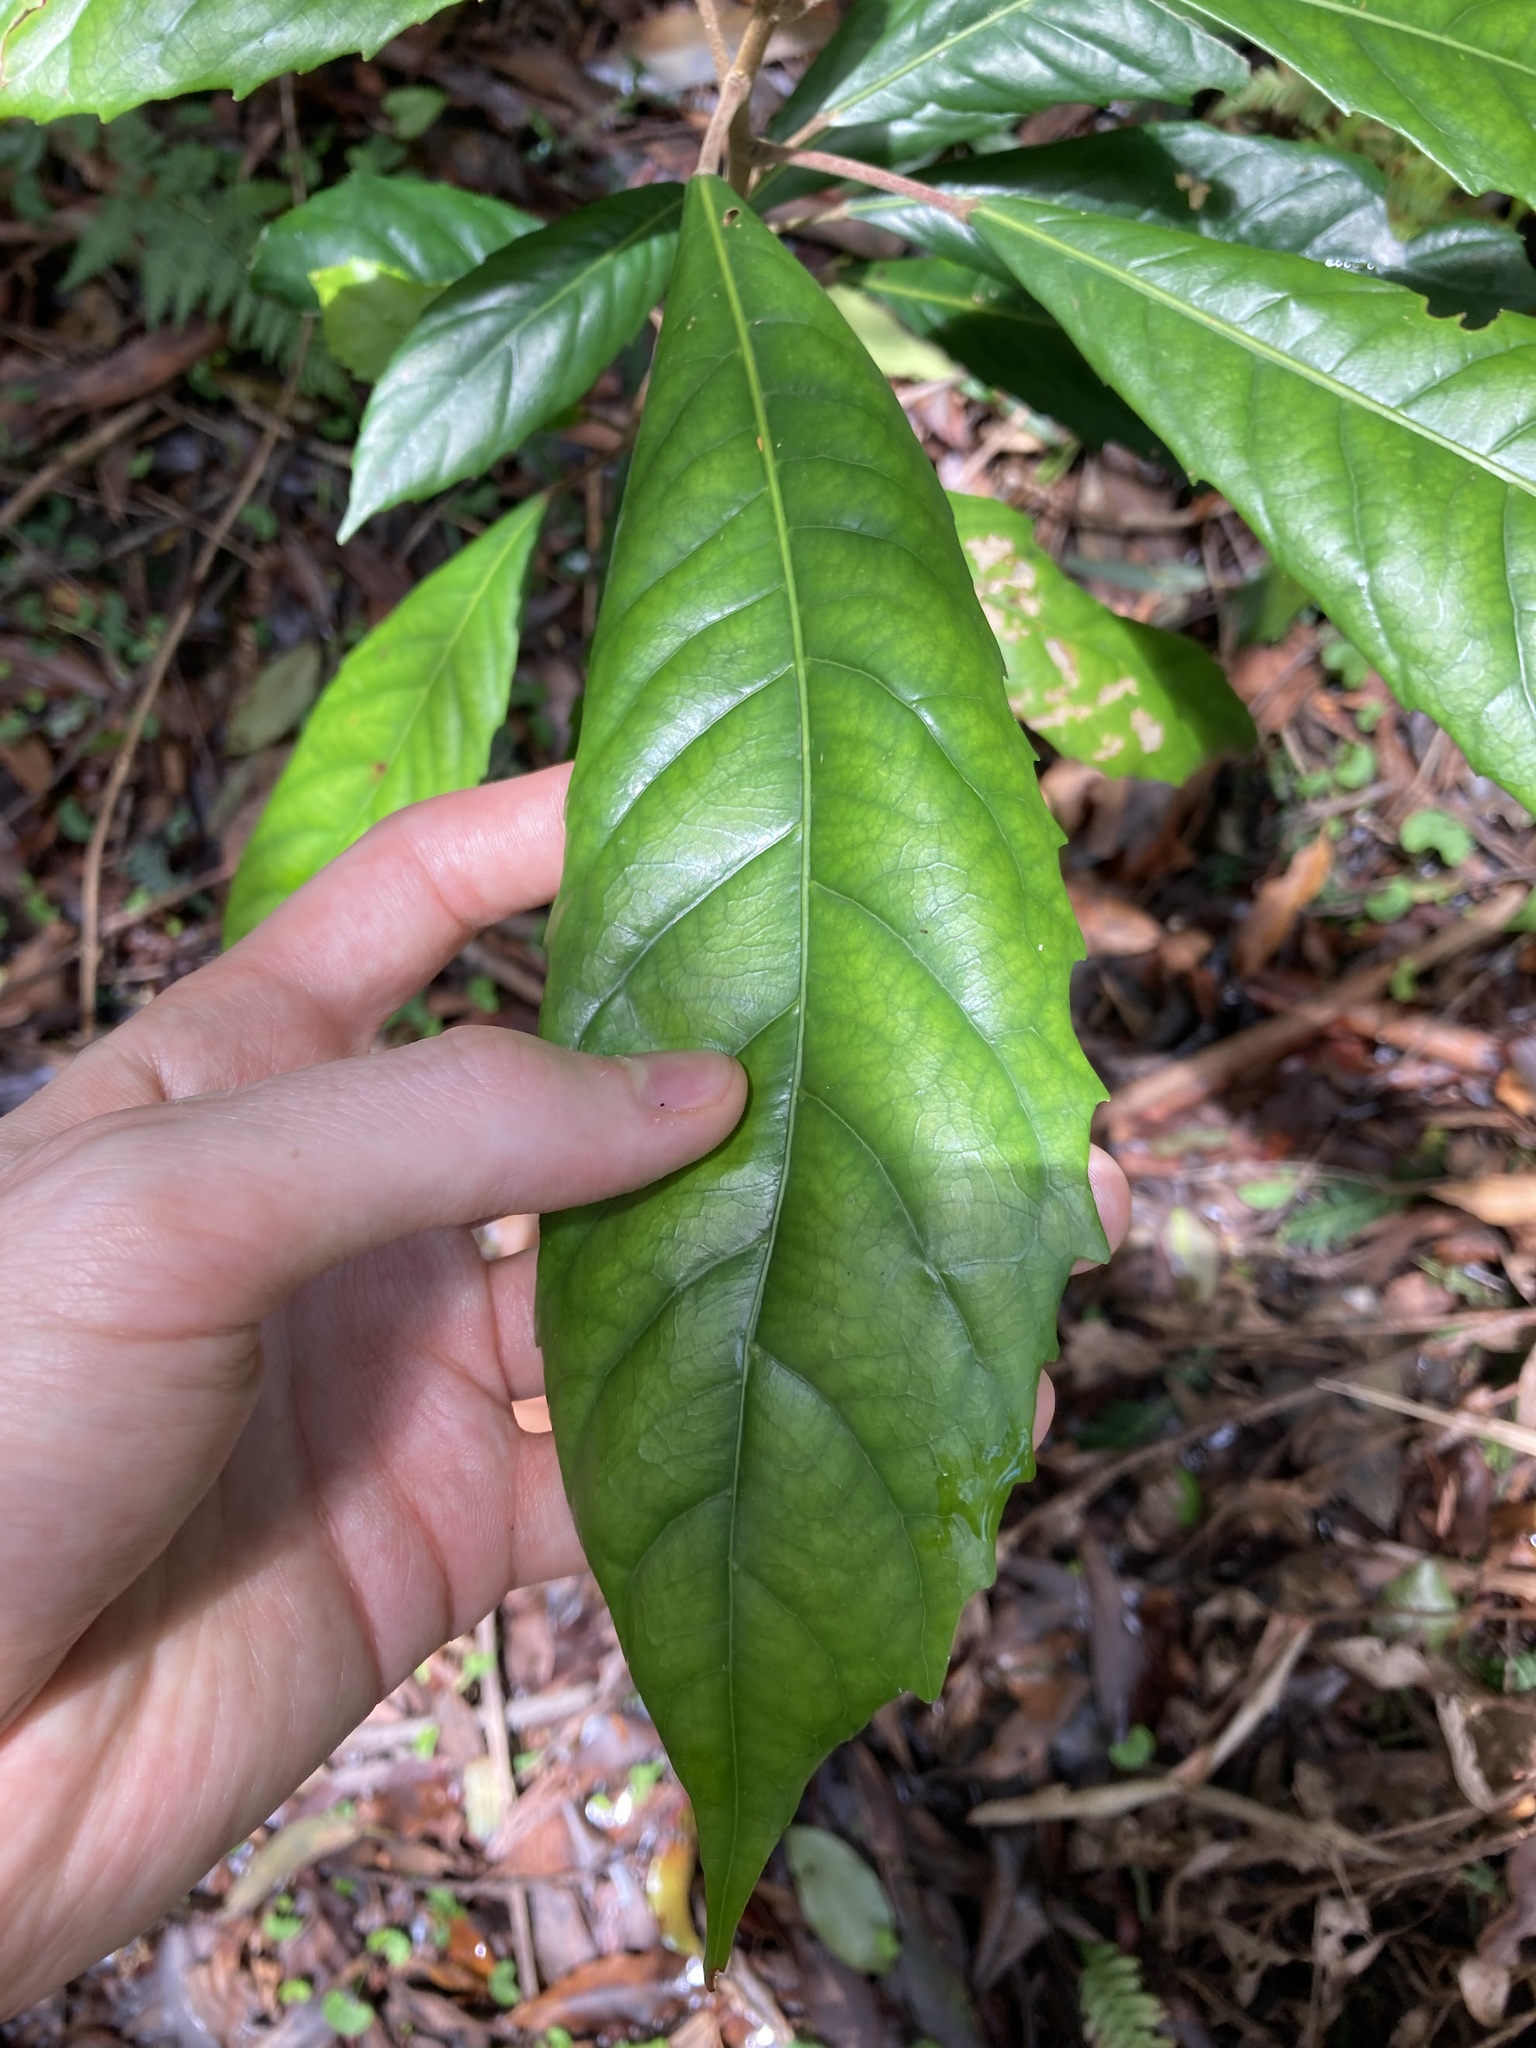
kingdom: Plantae
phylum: Tracheophyta
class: Magnoliopsida
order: Oxalidales
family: Elaeocarpaceae
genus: Sloanea
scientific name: Sloanea woollsii
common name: Yellow carabeen
